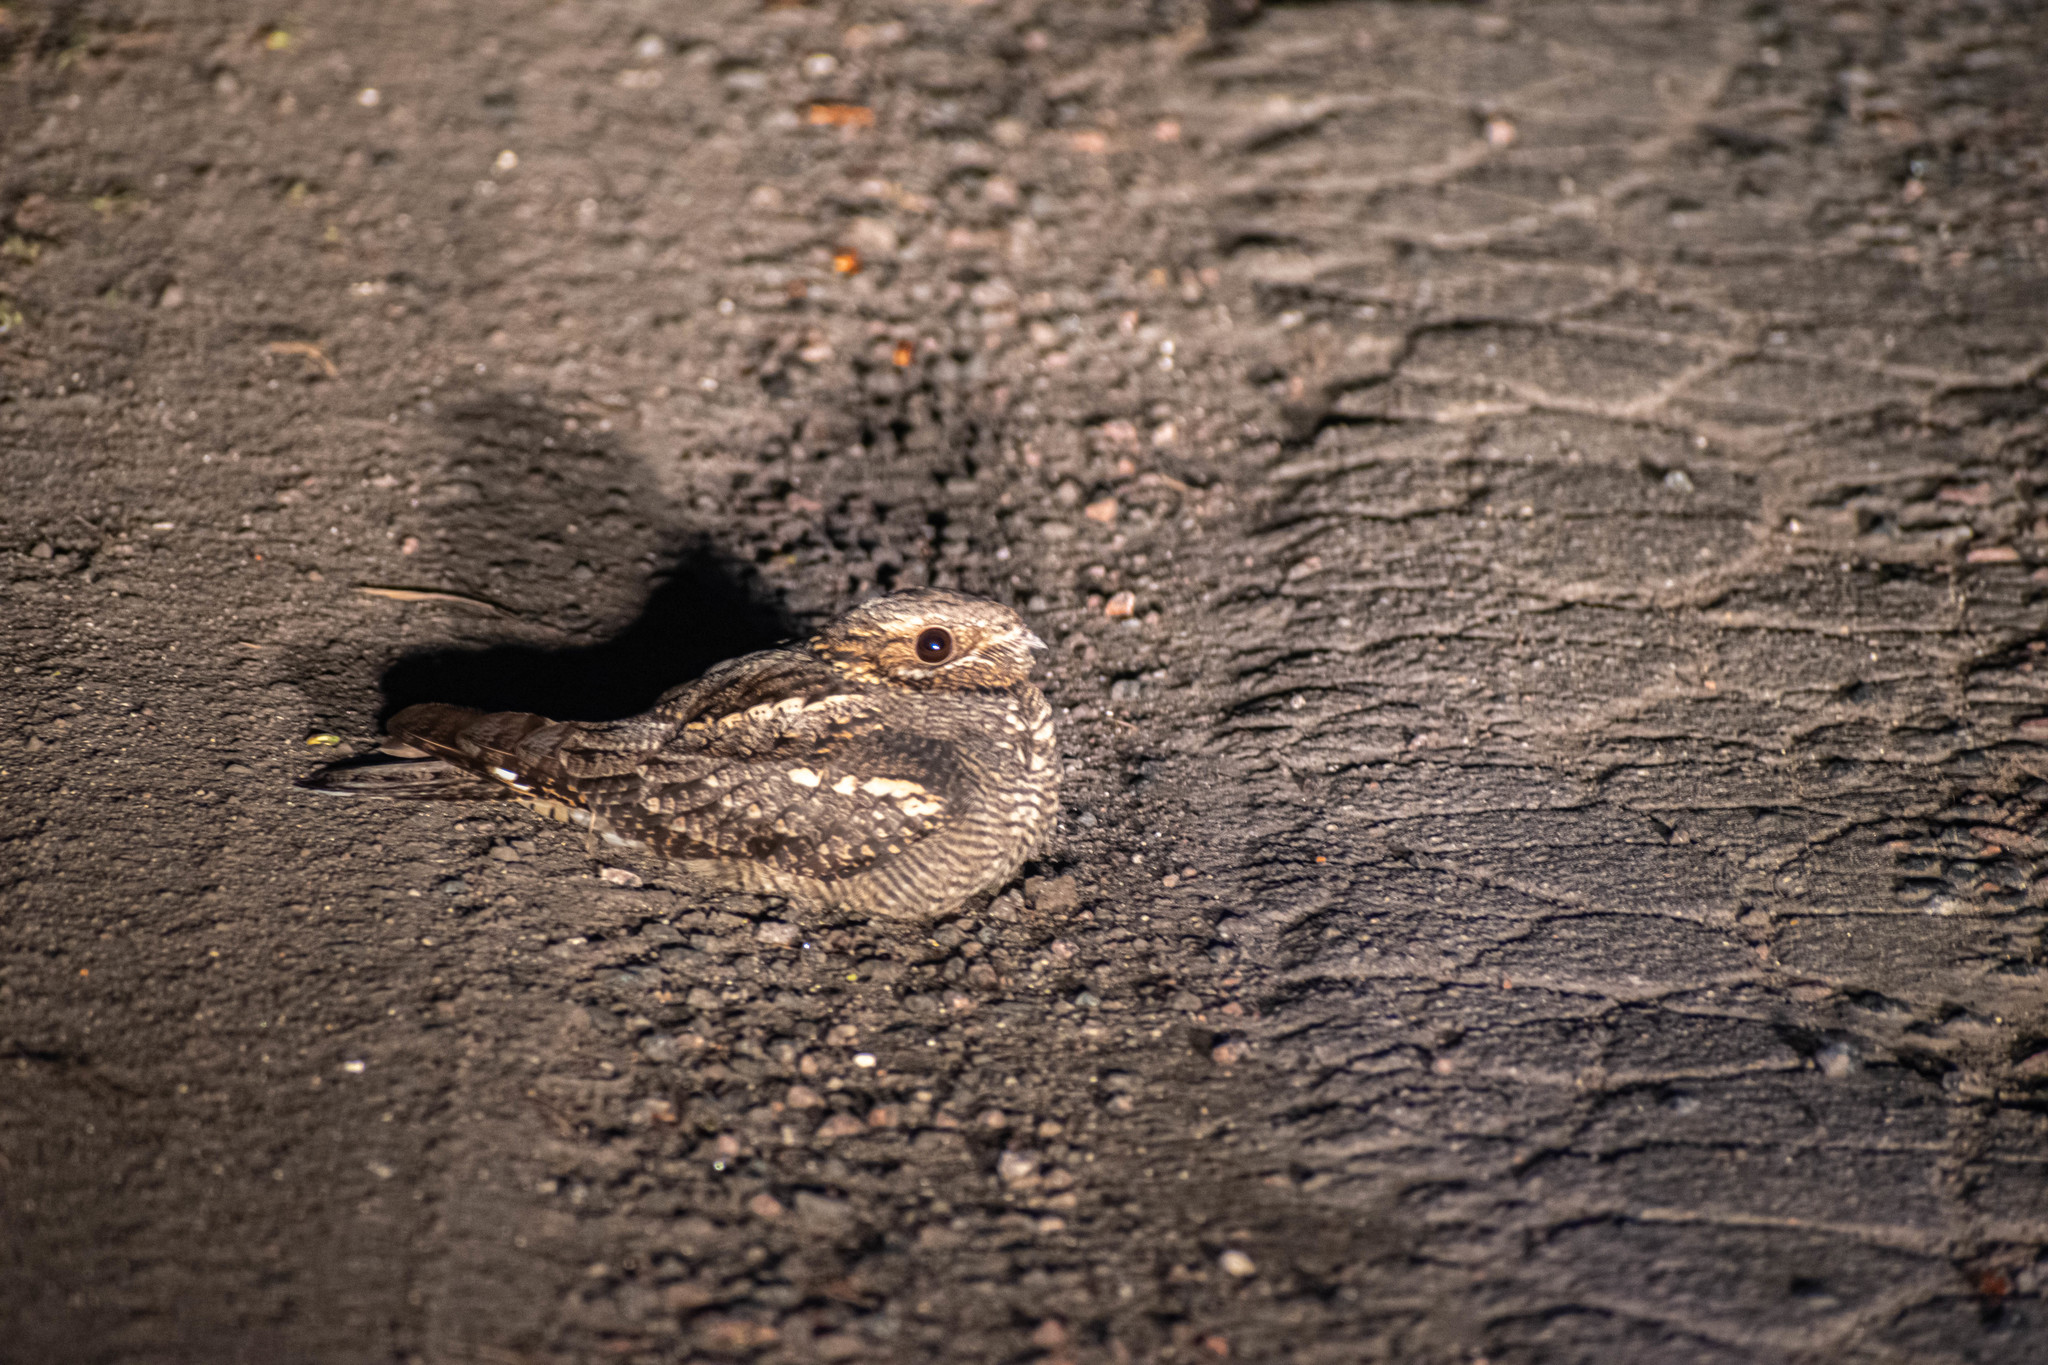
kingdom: Animalia
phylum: Chordata
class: Aves
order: Caprimulgiformes
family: Caprimulgidae
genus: Caprimulgus
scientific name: Caprimulgus europaeus
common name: European nightjar
